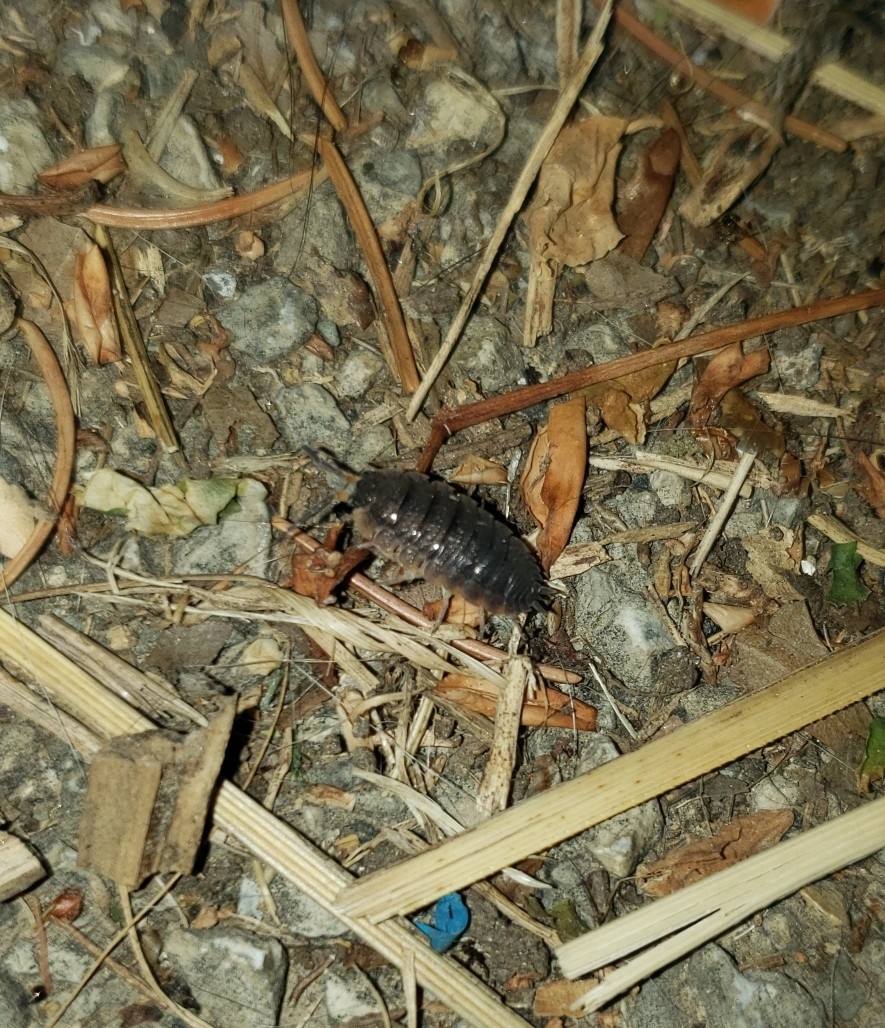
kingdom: Animalia
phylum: Arthropoda
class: Malacostraca
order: Isopoda
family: Porcellionidae
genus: Porcellio
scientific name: Porcellio scaber
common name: Common rough woodlouse
